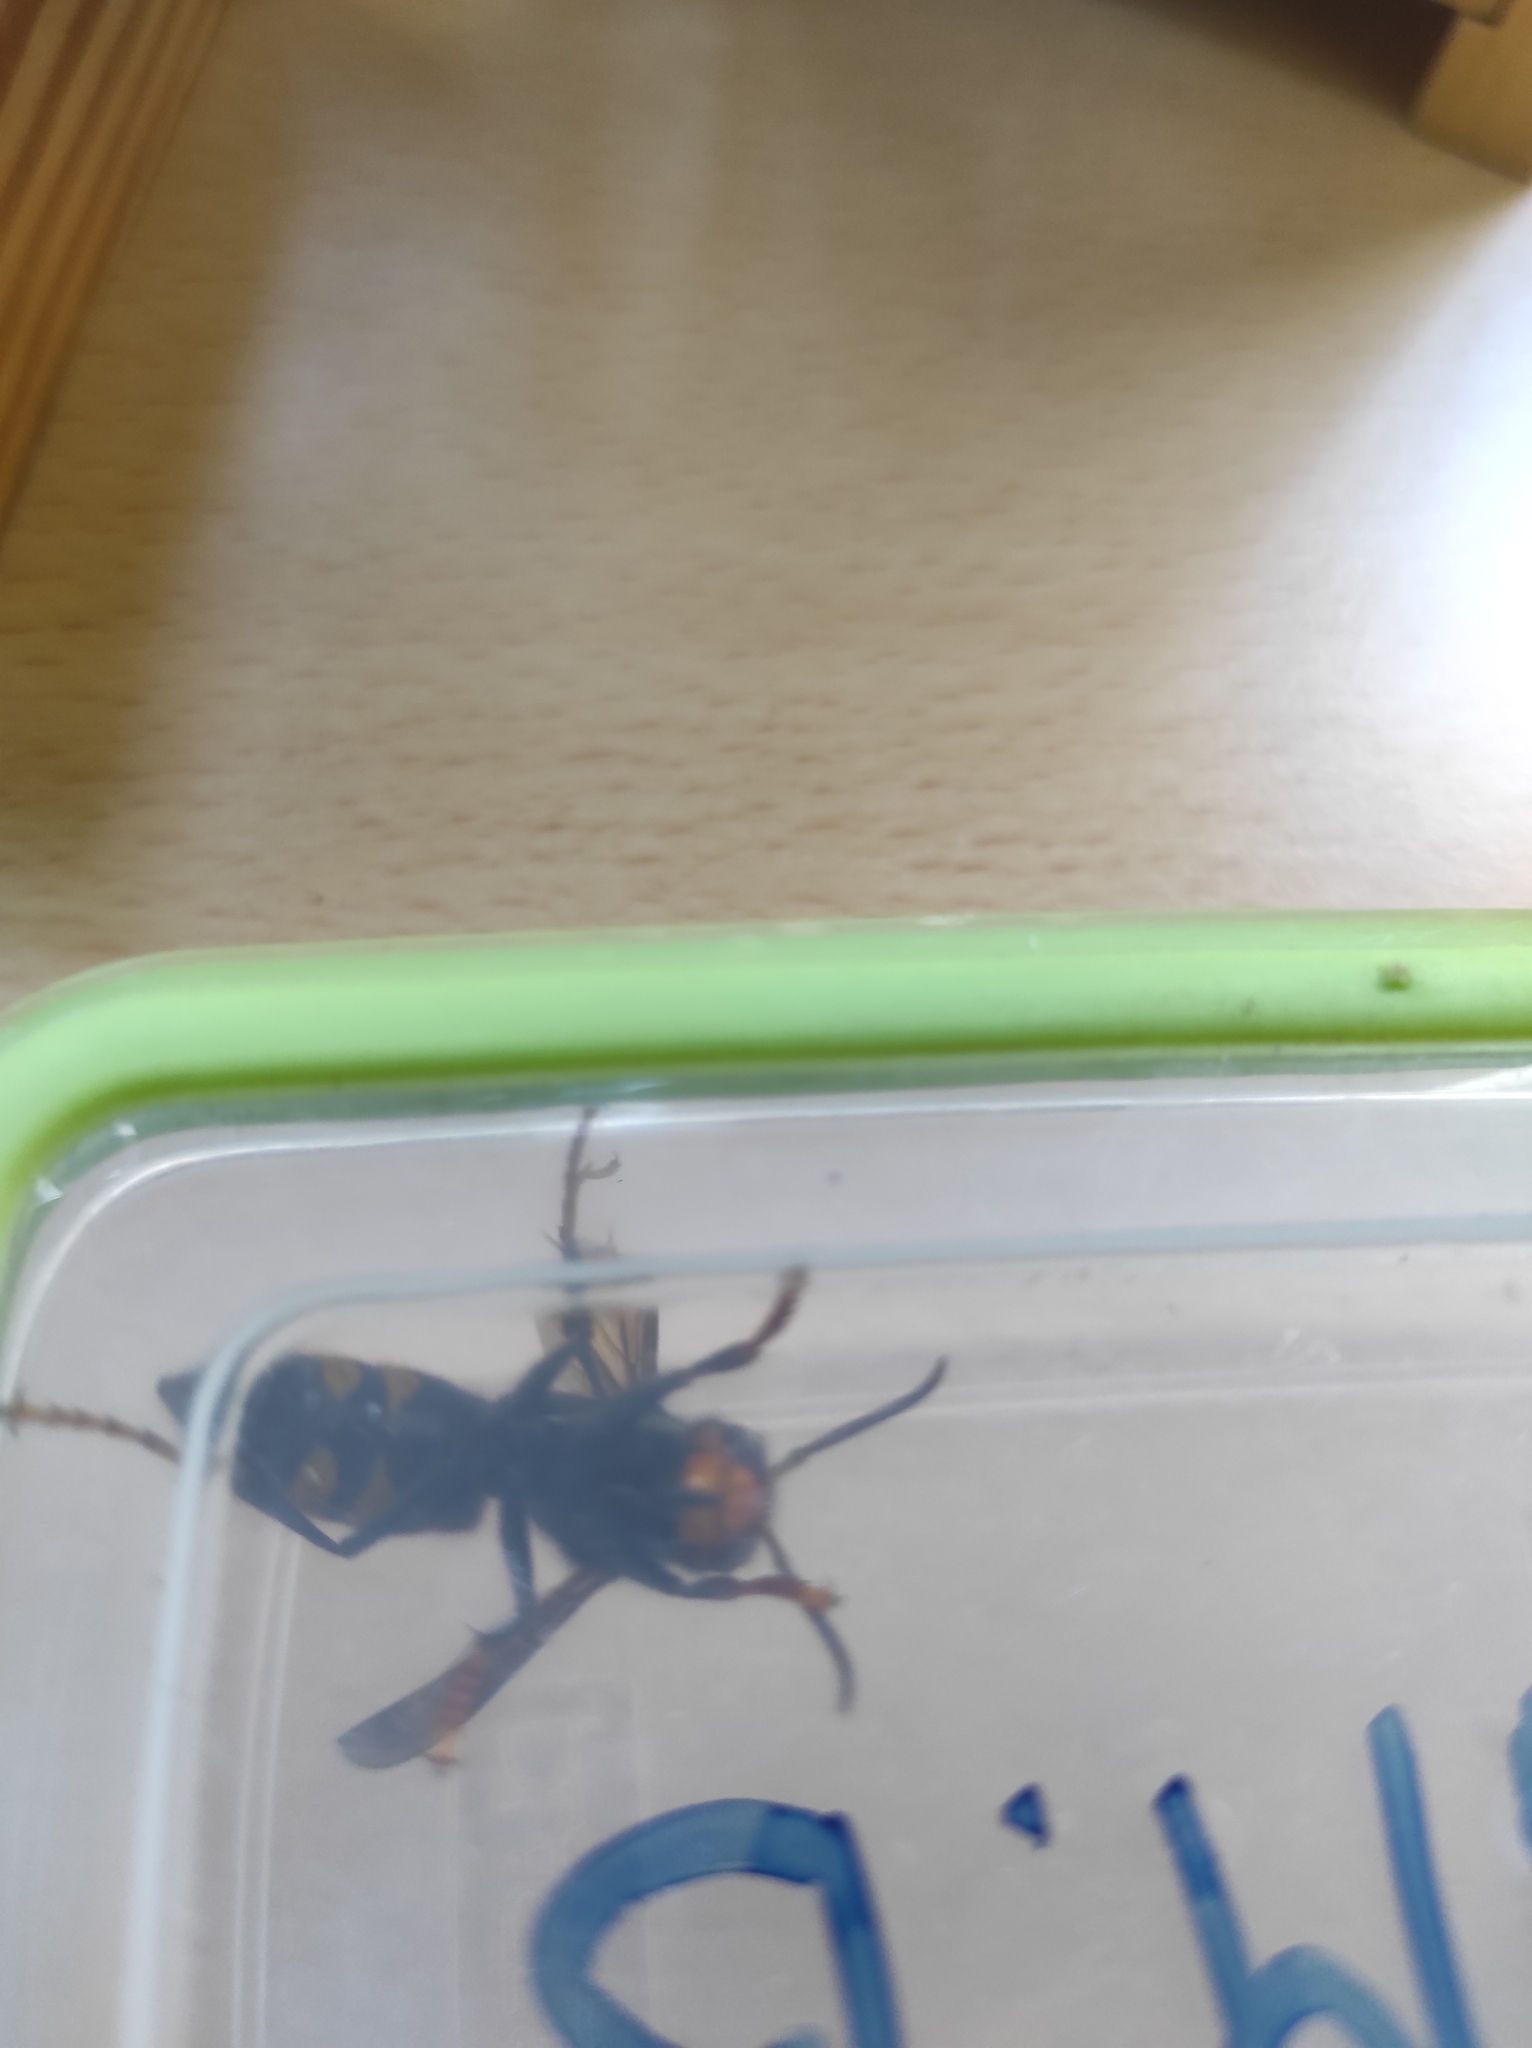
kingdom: Animalia
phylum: Arthropoda
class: Insecta
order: Hymenoptera
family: Vespidae
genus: Vespa
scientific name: Vespa velutina
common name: Asian hornet
